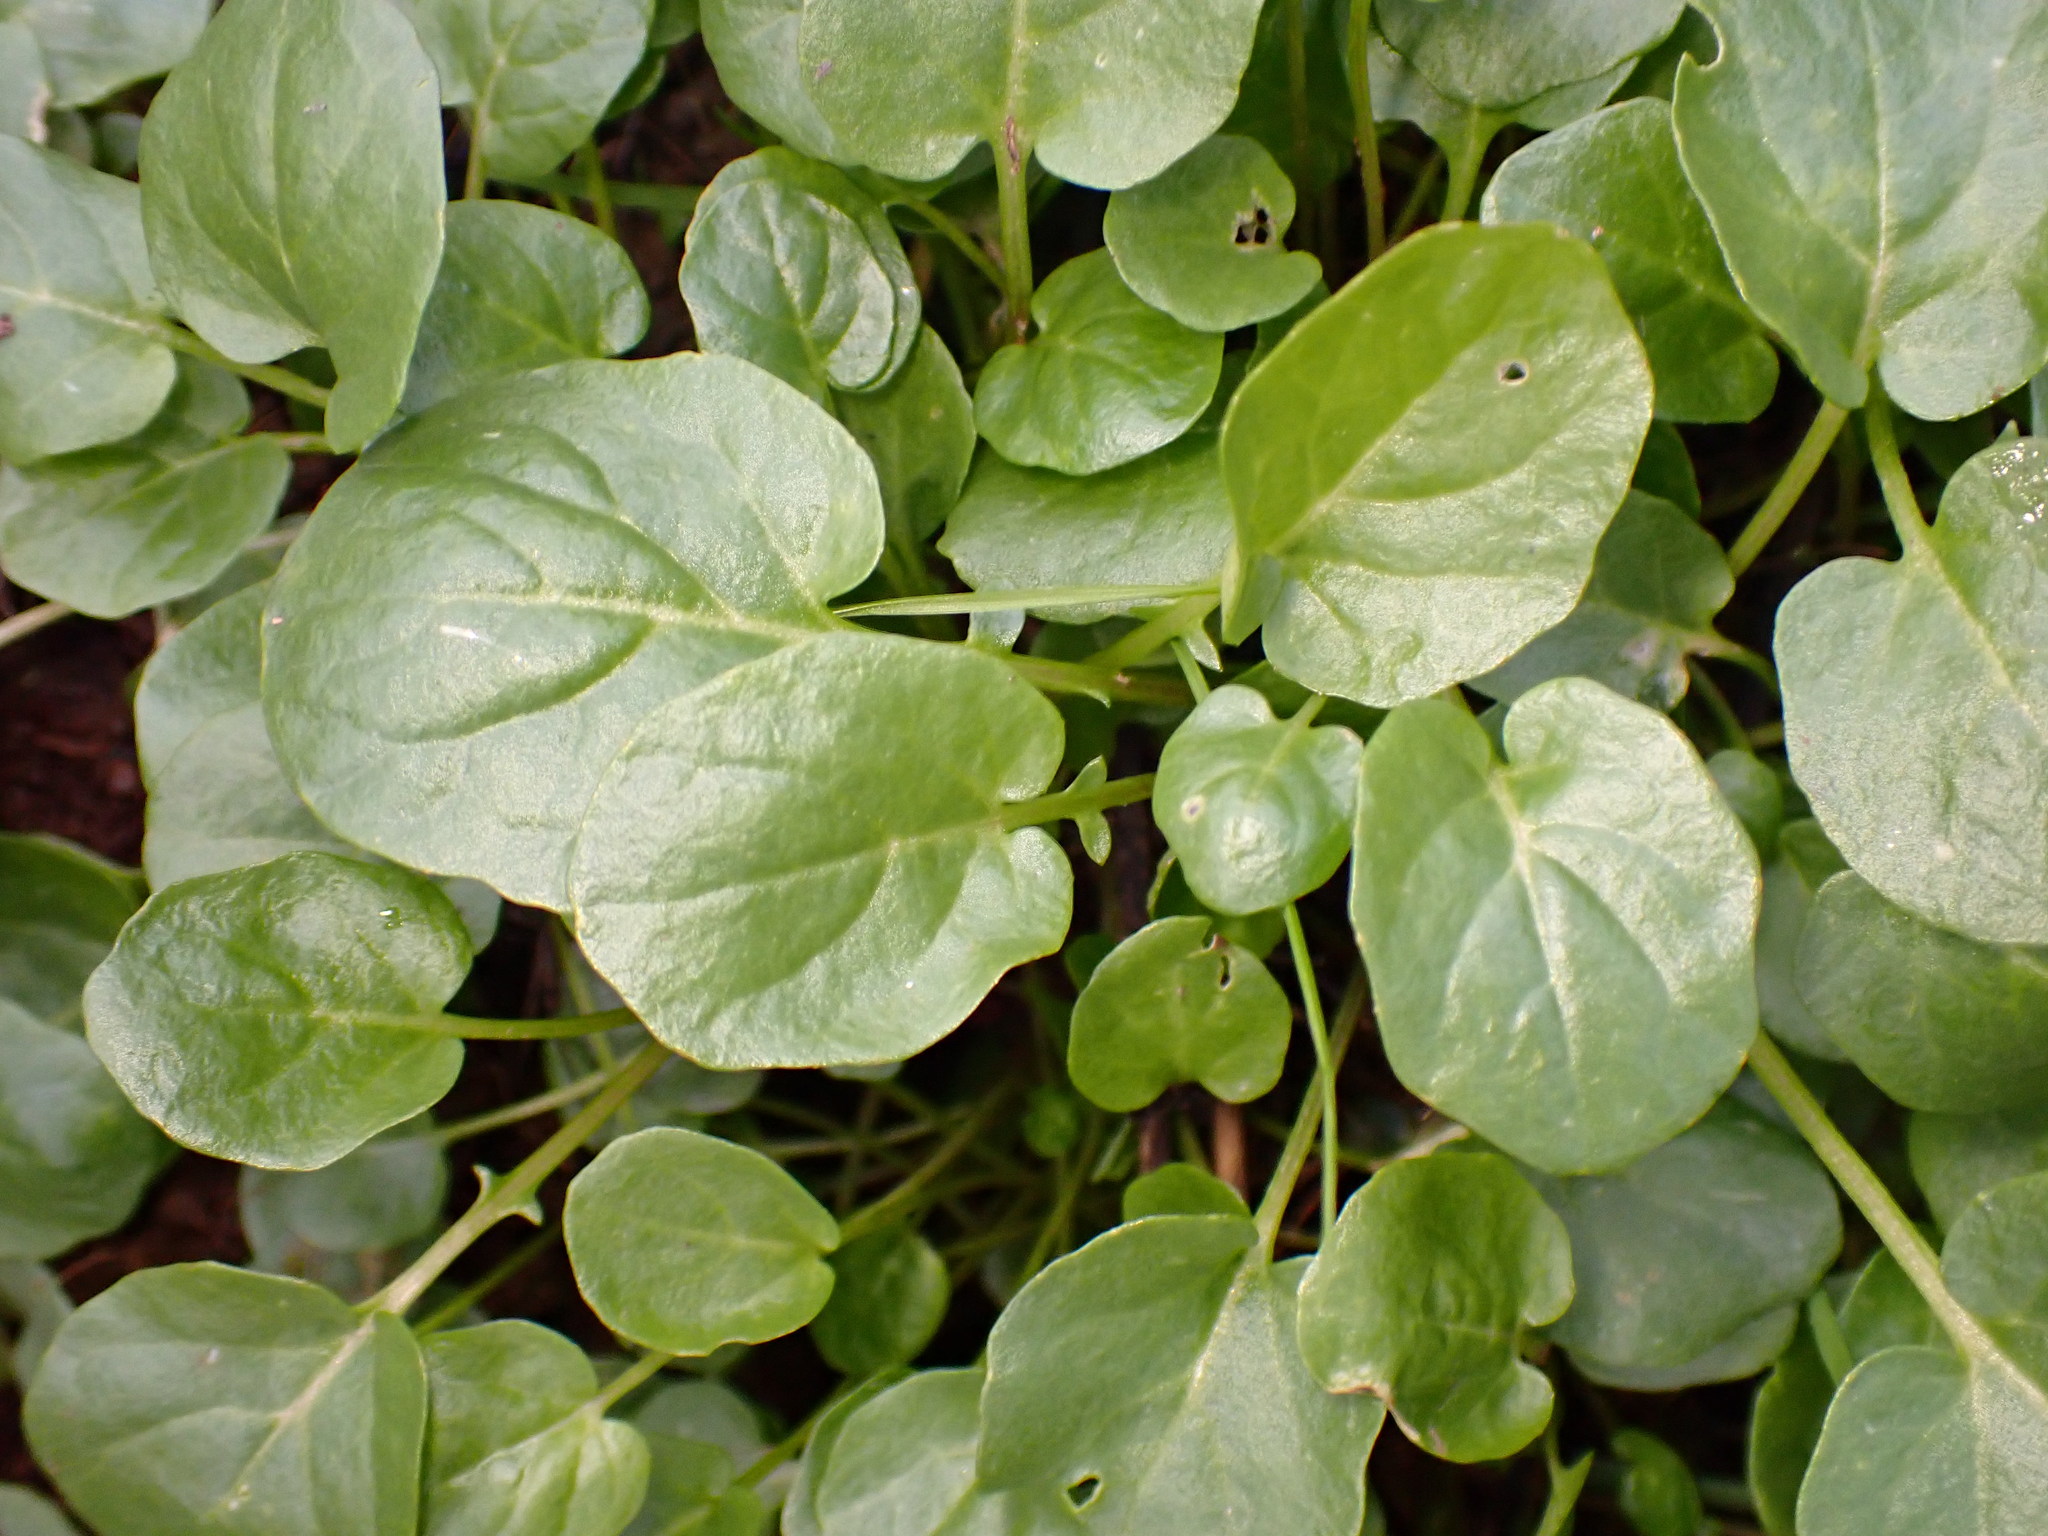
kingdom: Plantae
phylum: Tracheophyta
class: Magnoliopsida
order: Brassicales
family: Brassicaceae
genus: Nasturtium
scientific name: Nasturtium officinale
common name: Watercress
